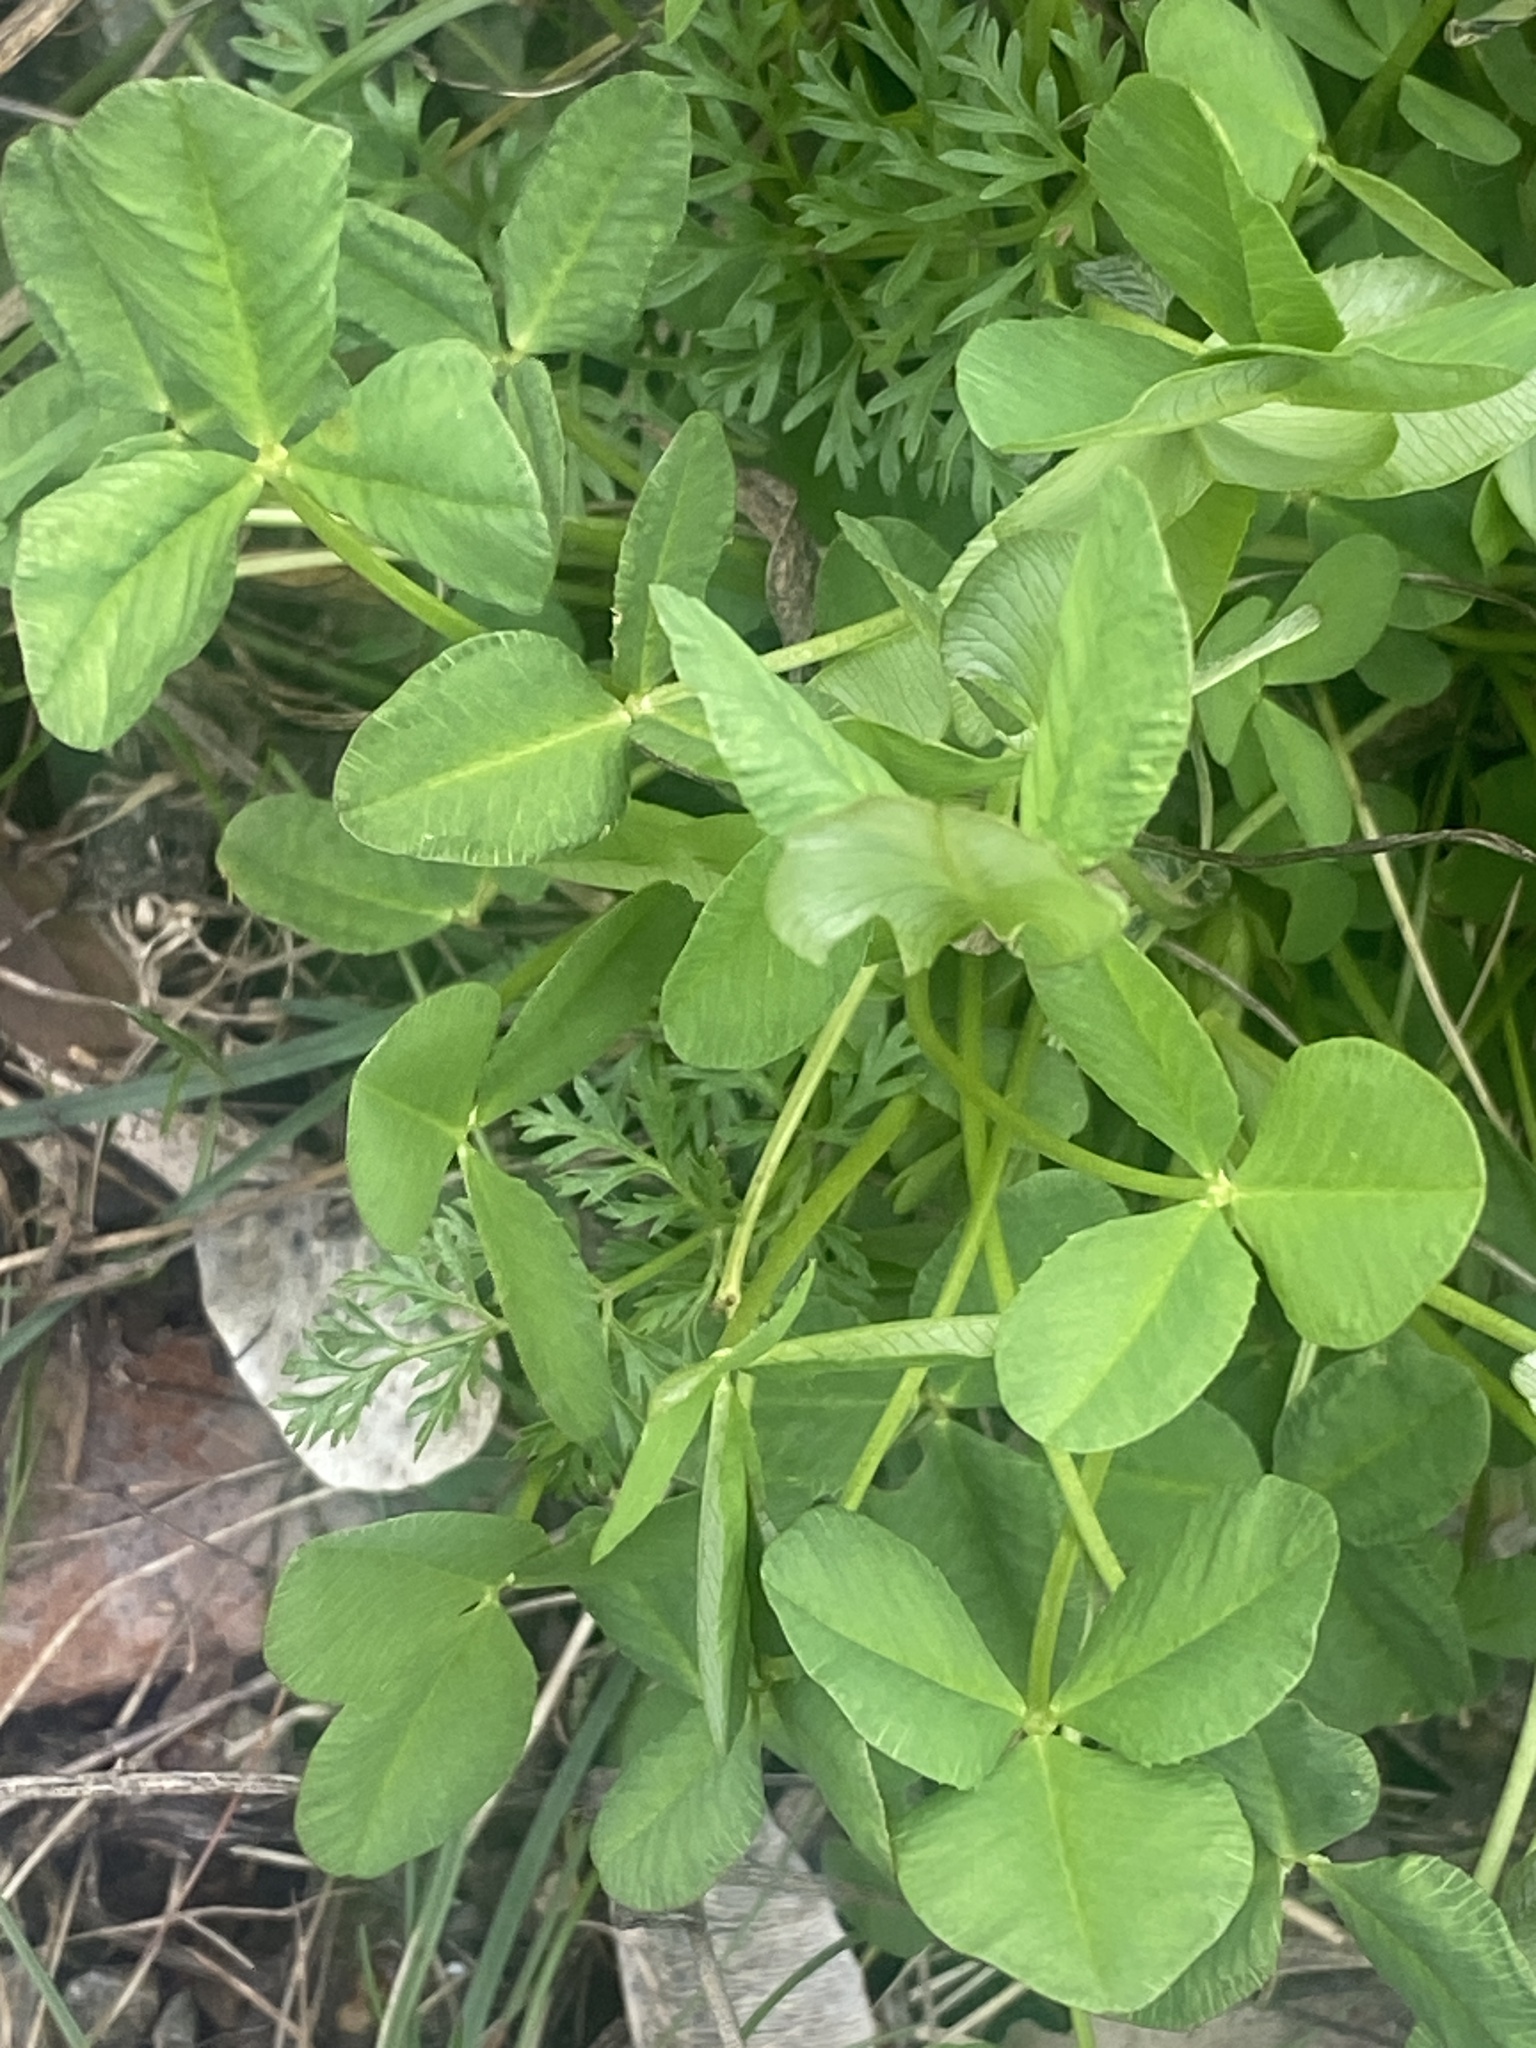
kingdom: Plantae
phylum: Tracheophyta
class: Magnoliopsida
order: Fabales
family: Fabaceae
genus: Trifolium
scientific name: Trifolium hybridum
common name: Alsike clover
